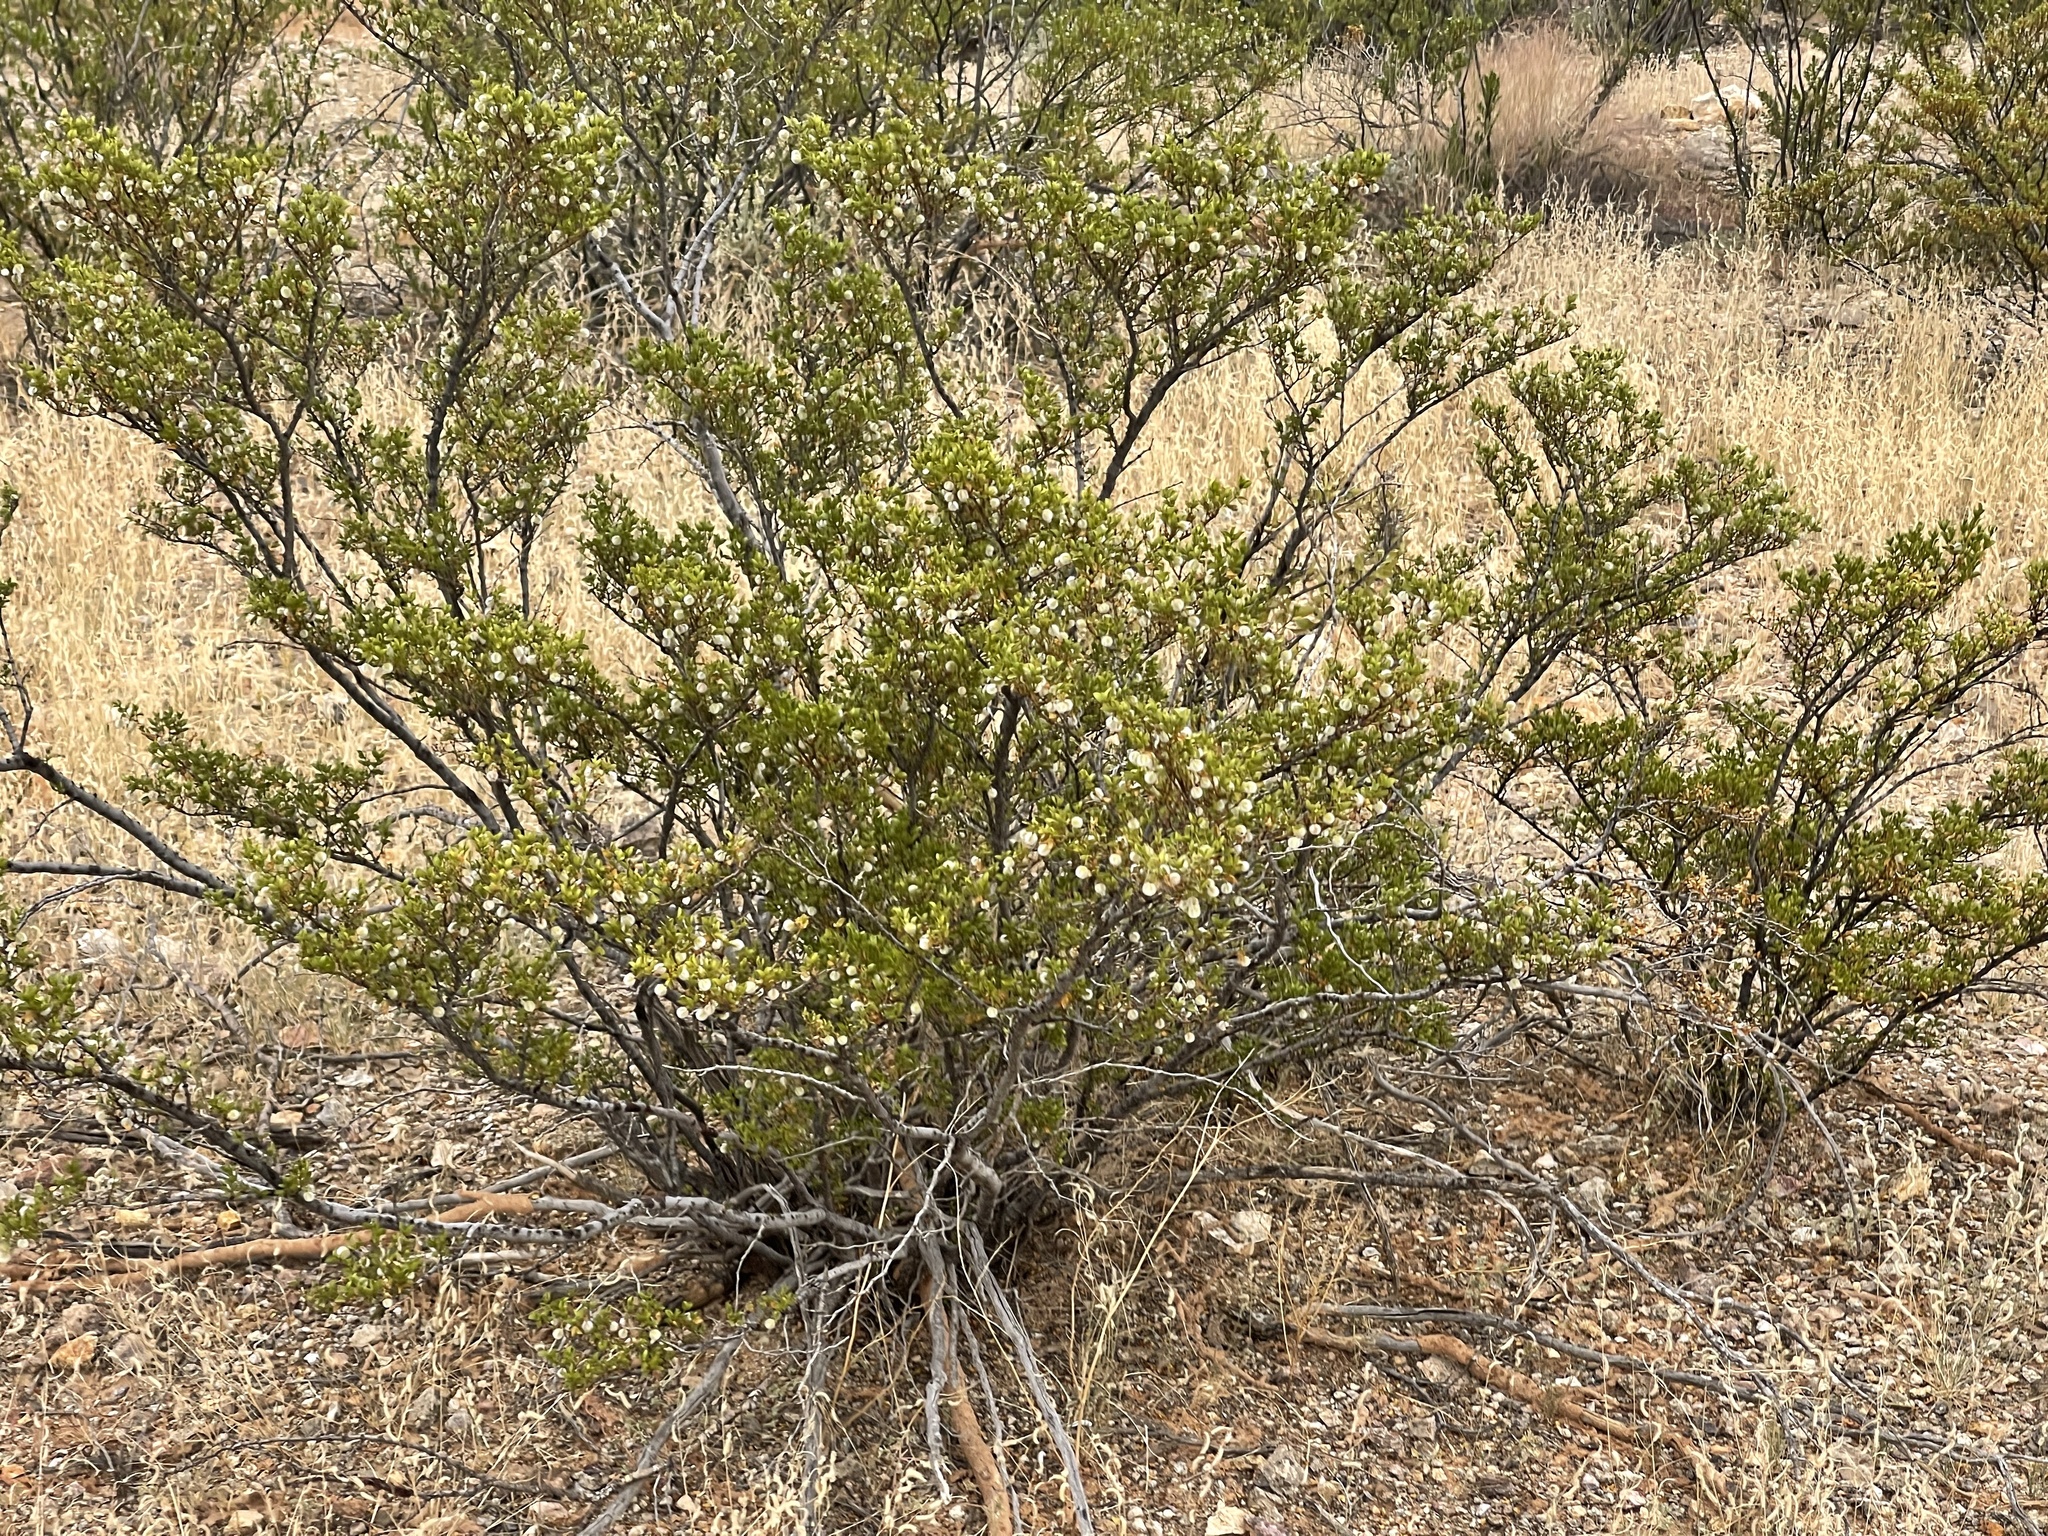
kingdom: Plantae
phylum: Tracheophyta
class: Magnoliopsida
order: Zygophyllales
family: Zygophyllaceae
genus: Larrea
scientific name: Larrea tridentata
